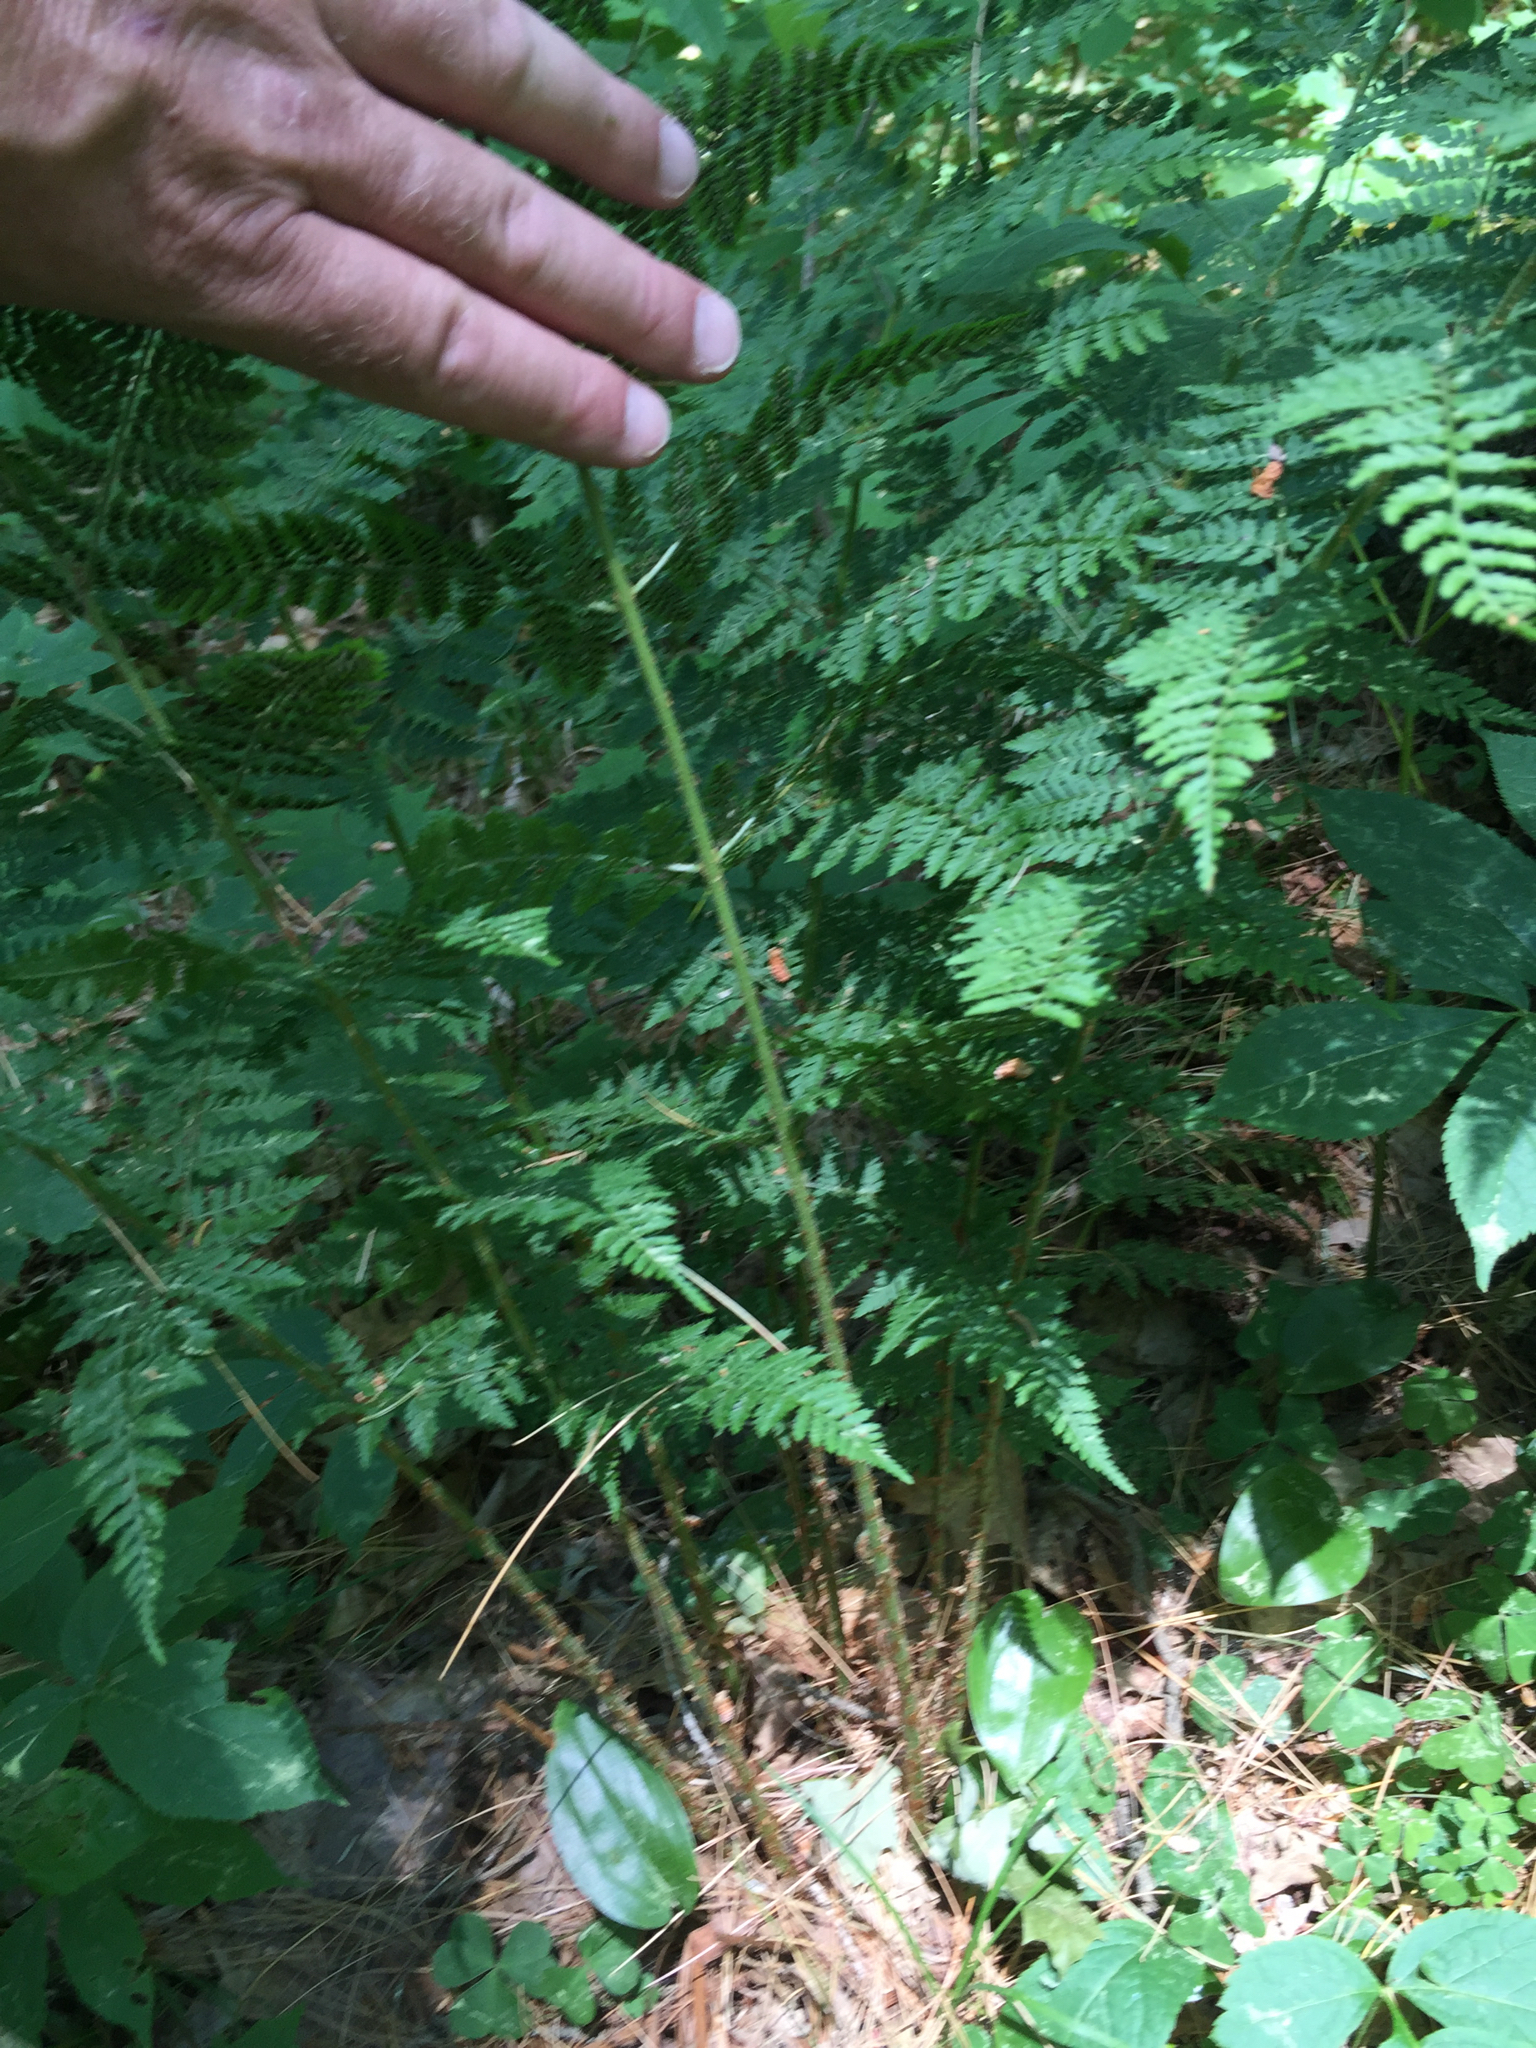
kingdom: Plantae
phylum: Tracheophyta
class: Polypodiopsida
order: Polypodiales
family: Dryopteridaceae
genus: Dryopteris
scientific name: Dryopteris intermedia
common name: Evergreen wood fern
